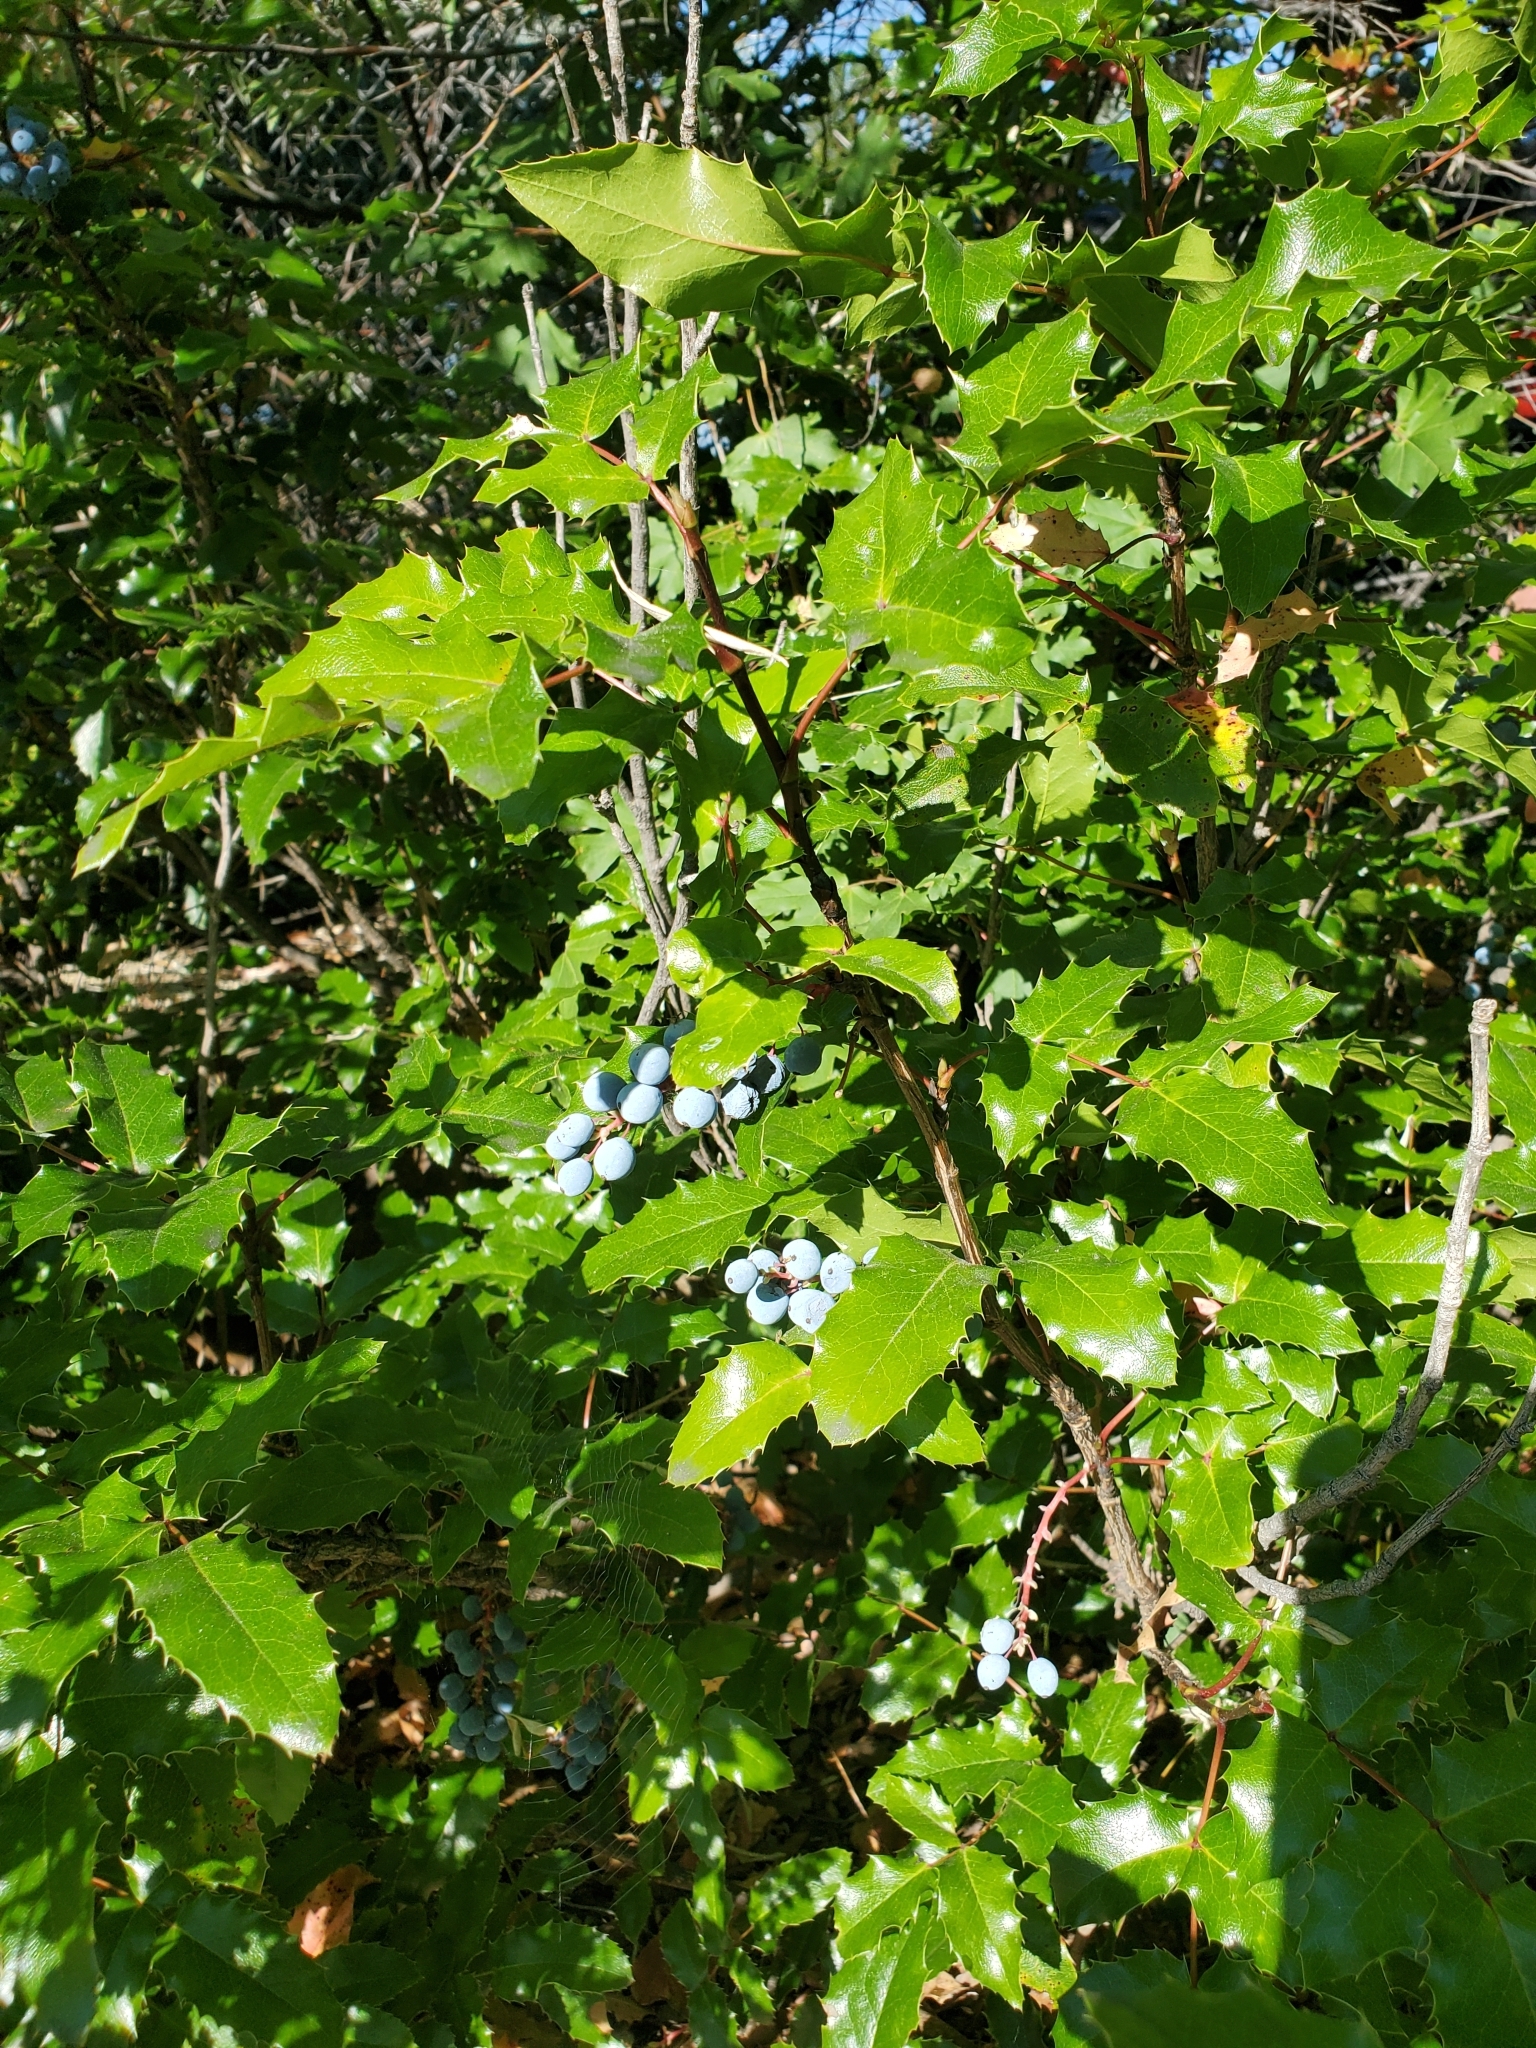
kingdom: Plantae
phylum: Tracheophyta
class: Magnoliopsida
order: Ranunculales
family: Berberidaceae
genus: Mahonia
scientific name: Mahonia aquifolium
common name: Oregon-grape
